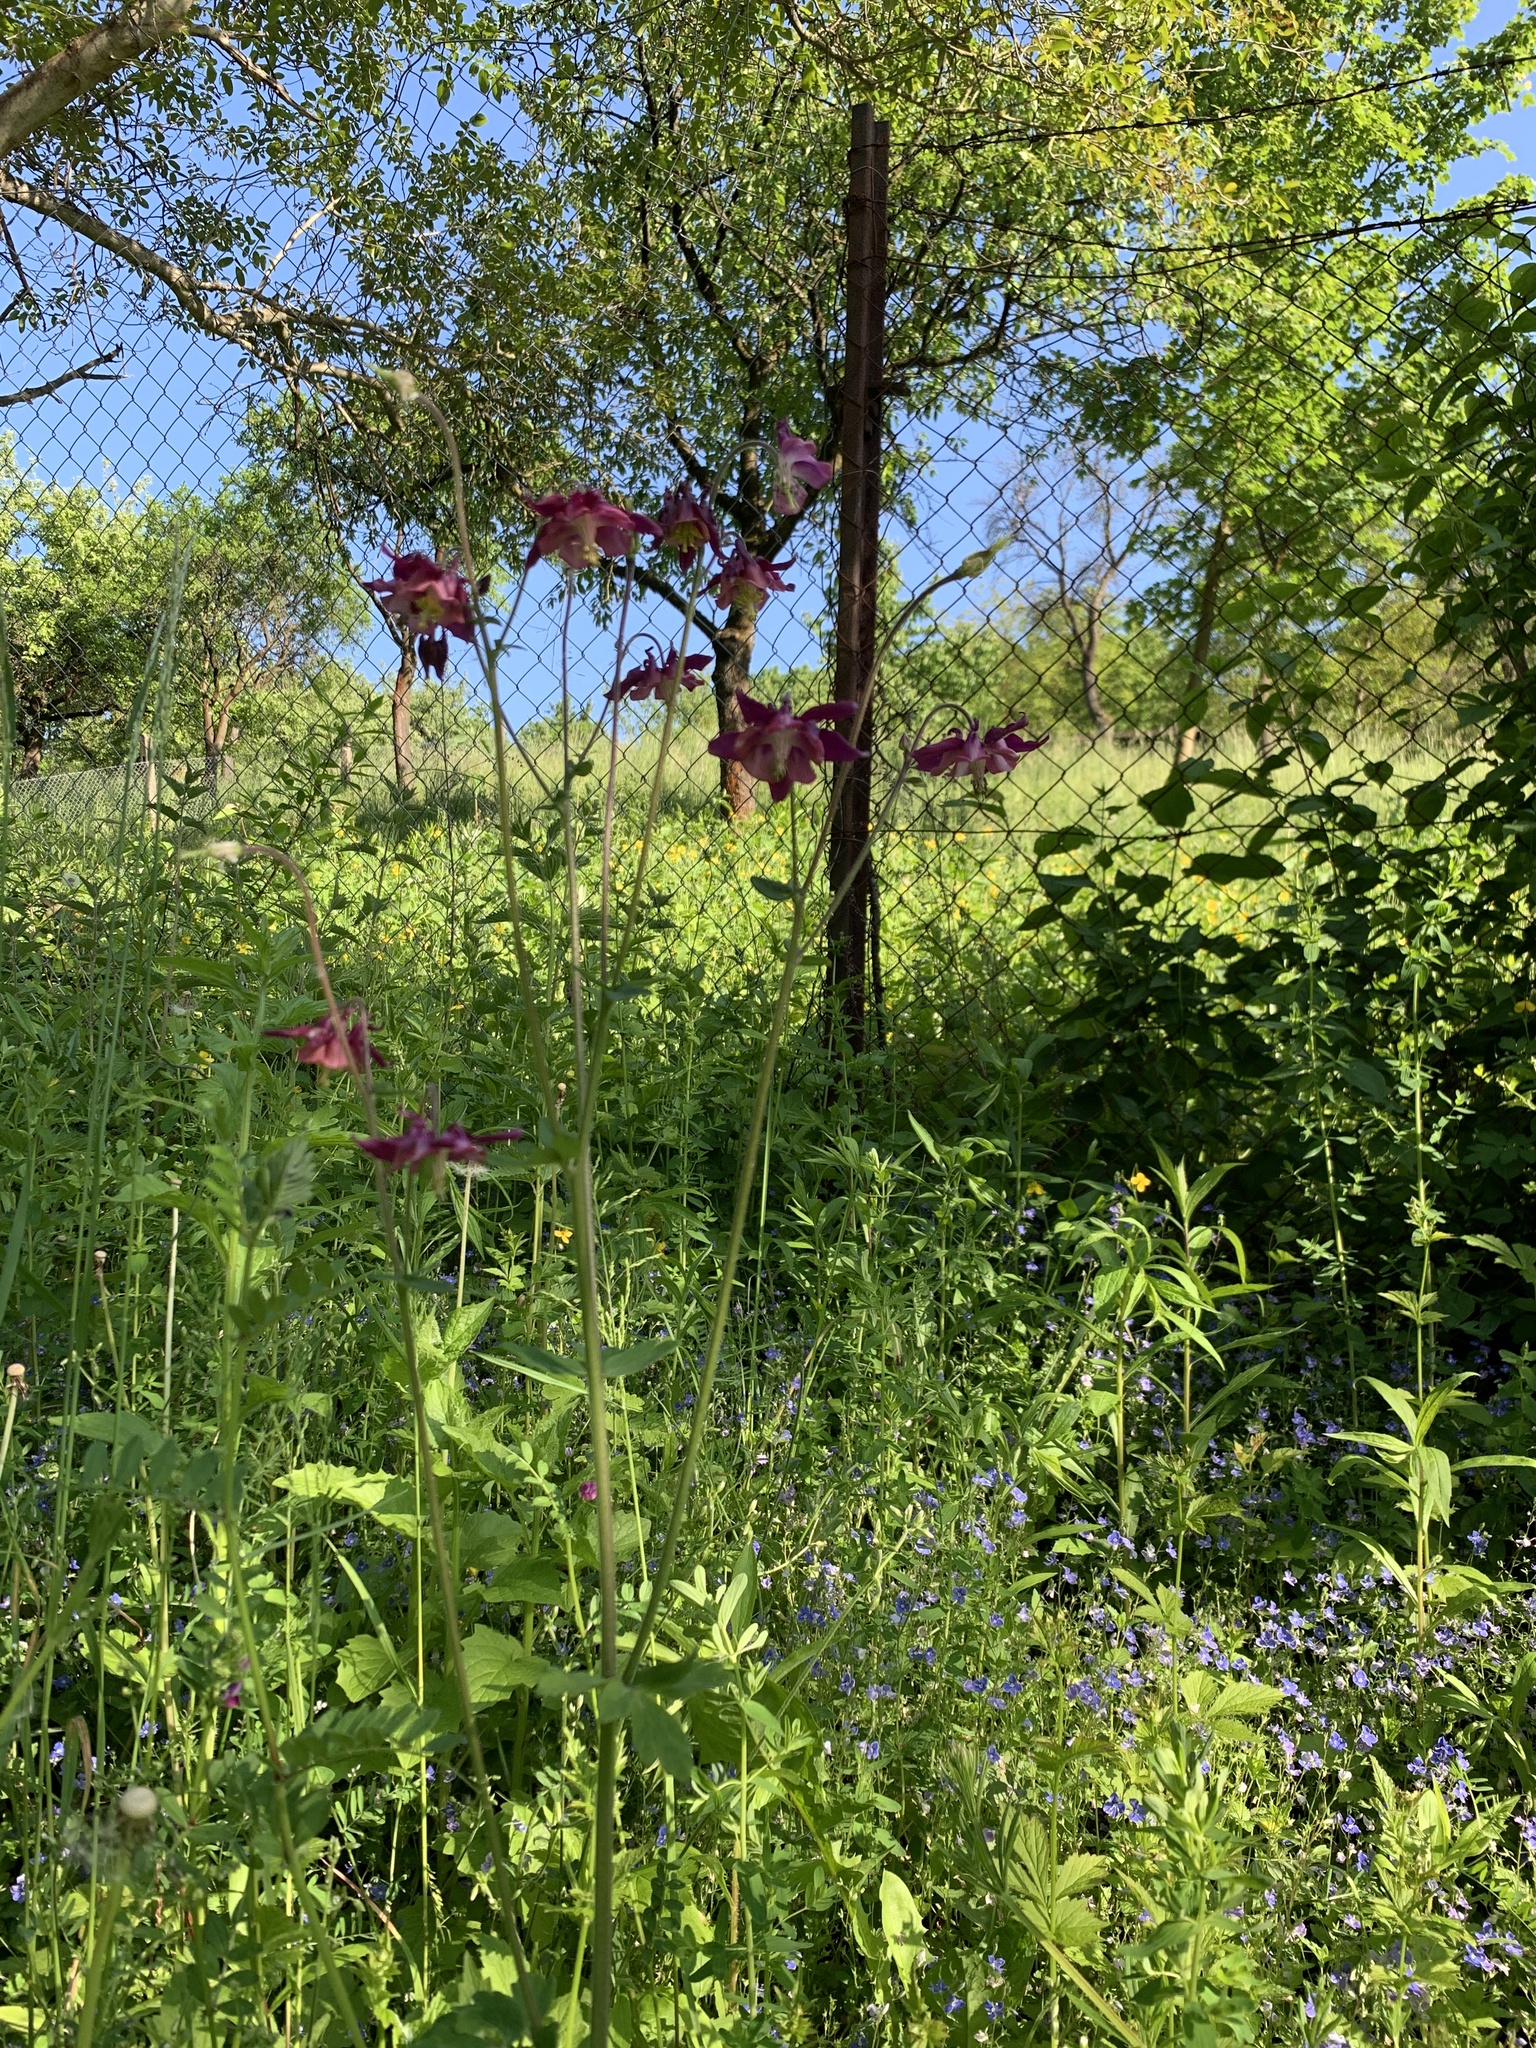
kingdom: Plantae
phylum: Tracheophyta
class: Magnoliopsida
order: Ranunculales
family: Ranunculaceae
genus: Aquilegia
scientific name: Aquilegia vulgaris
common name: Columbine
